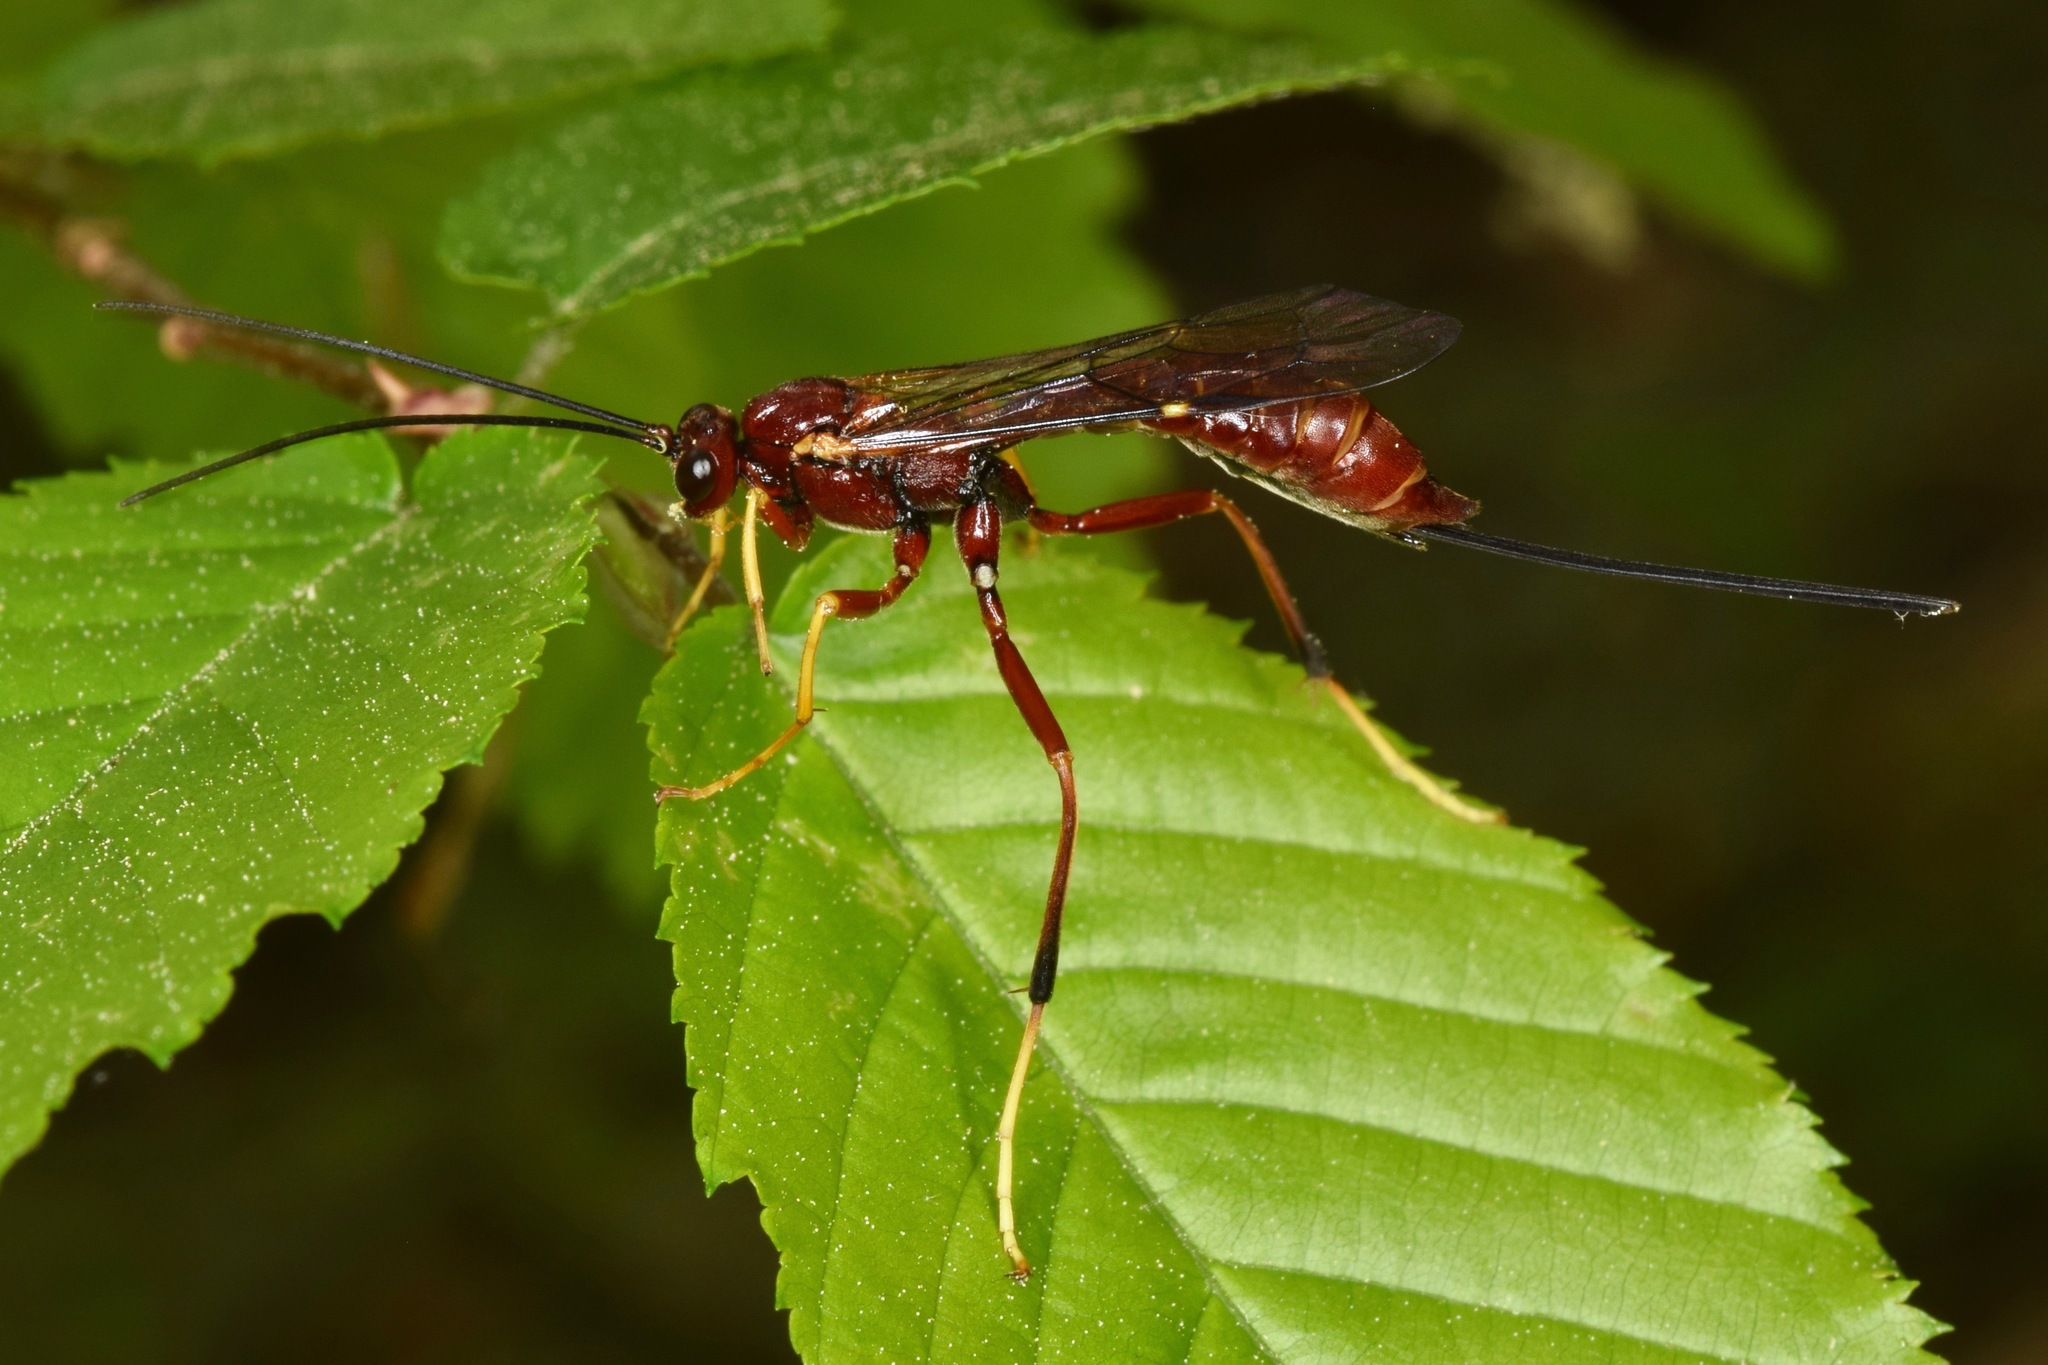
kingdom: Animalia
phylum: Arthropoda
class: Insecta
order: Hymenoptera
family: Ichneumonidae
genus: Coleocentrus
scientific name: Coleocentrus rufus
